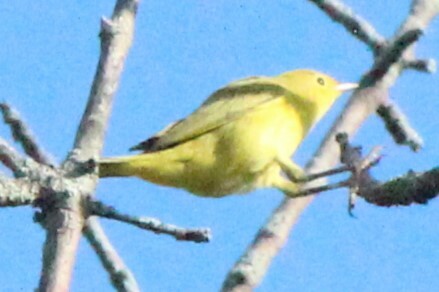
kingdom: Animalia
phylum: Chordata
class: Aves
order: Passeriformes
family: Parulidae
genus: Setophaga
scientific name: Setophaga petechia
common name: Yellow warbler
